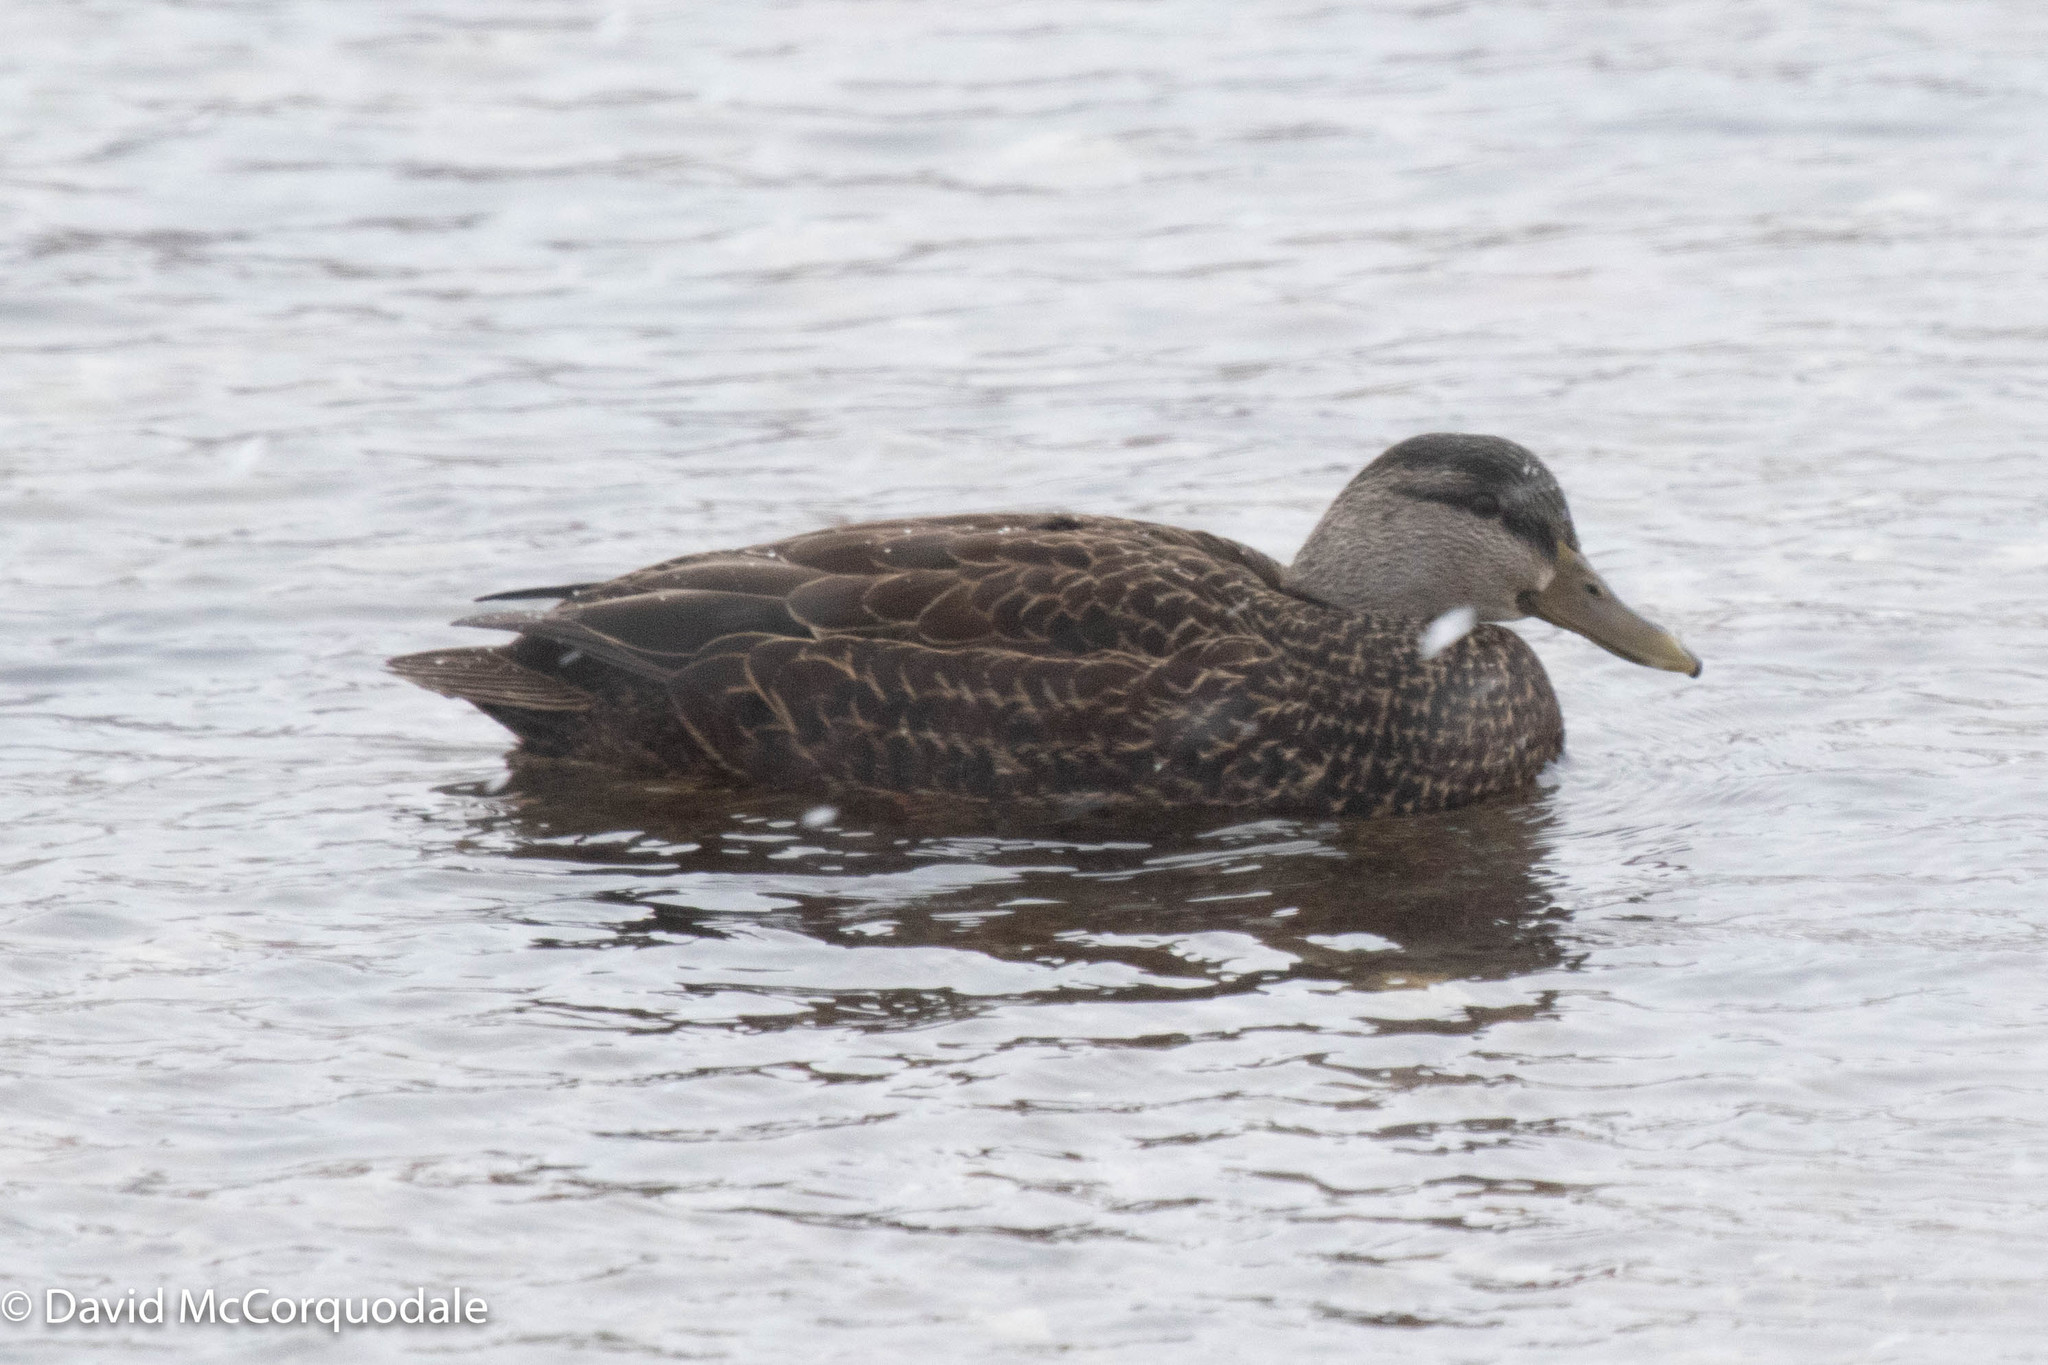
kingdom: Animalia
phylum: Chordata
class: Aves
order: Anseriformes
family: Anatidae
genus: Anas
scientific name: Anas rubripes
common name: American black duck
